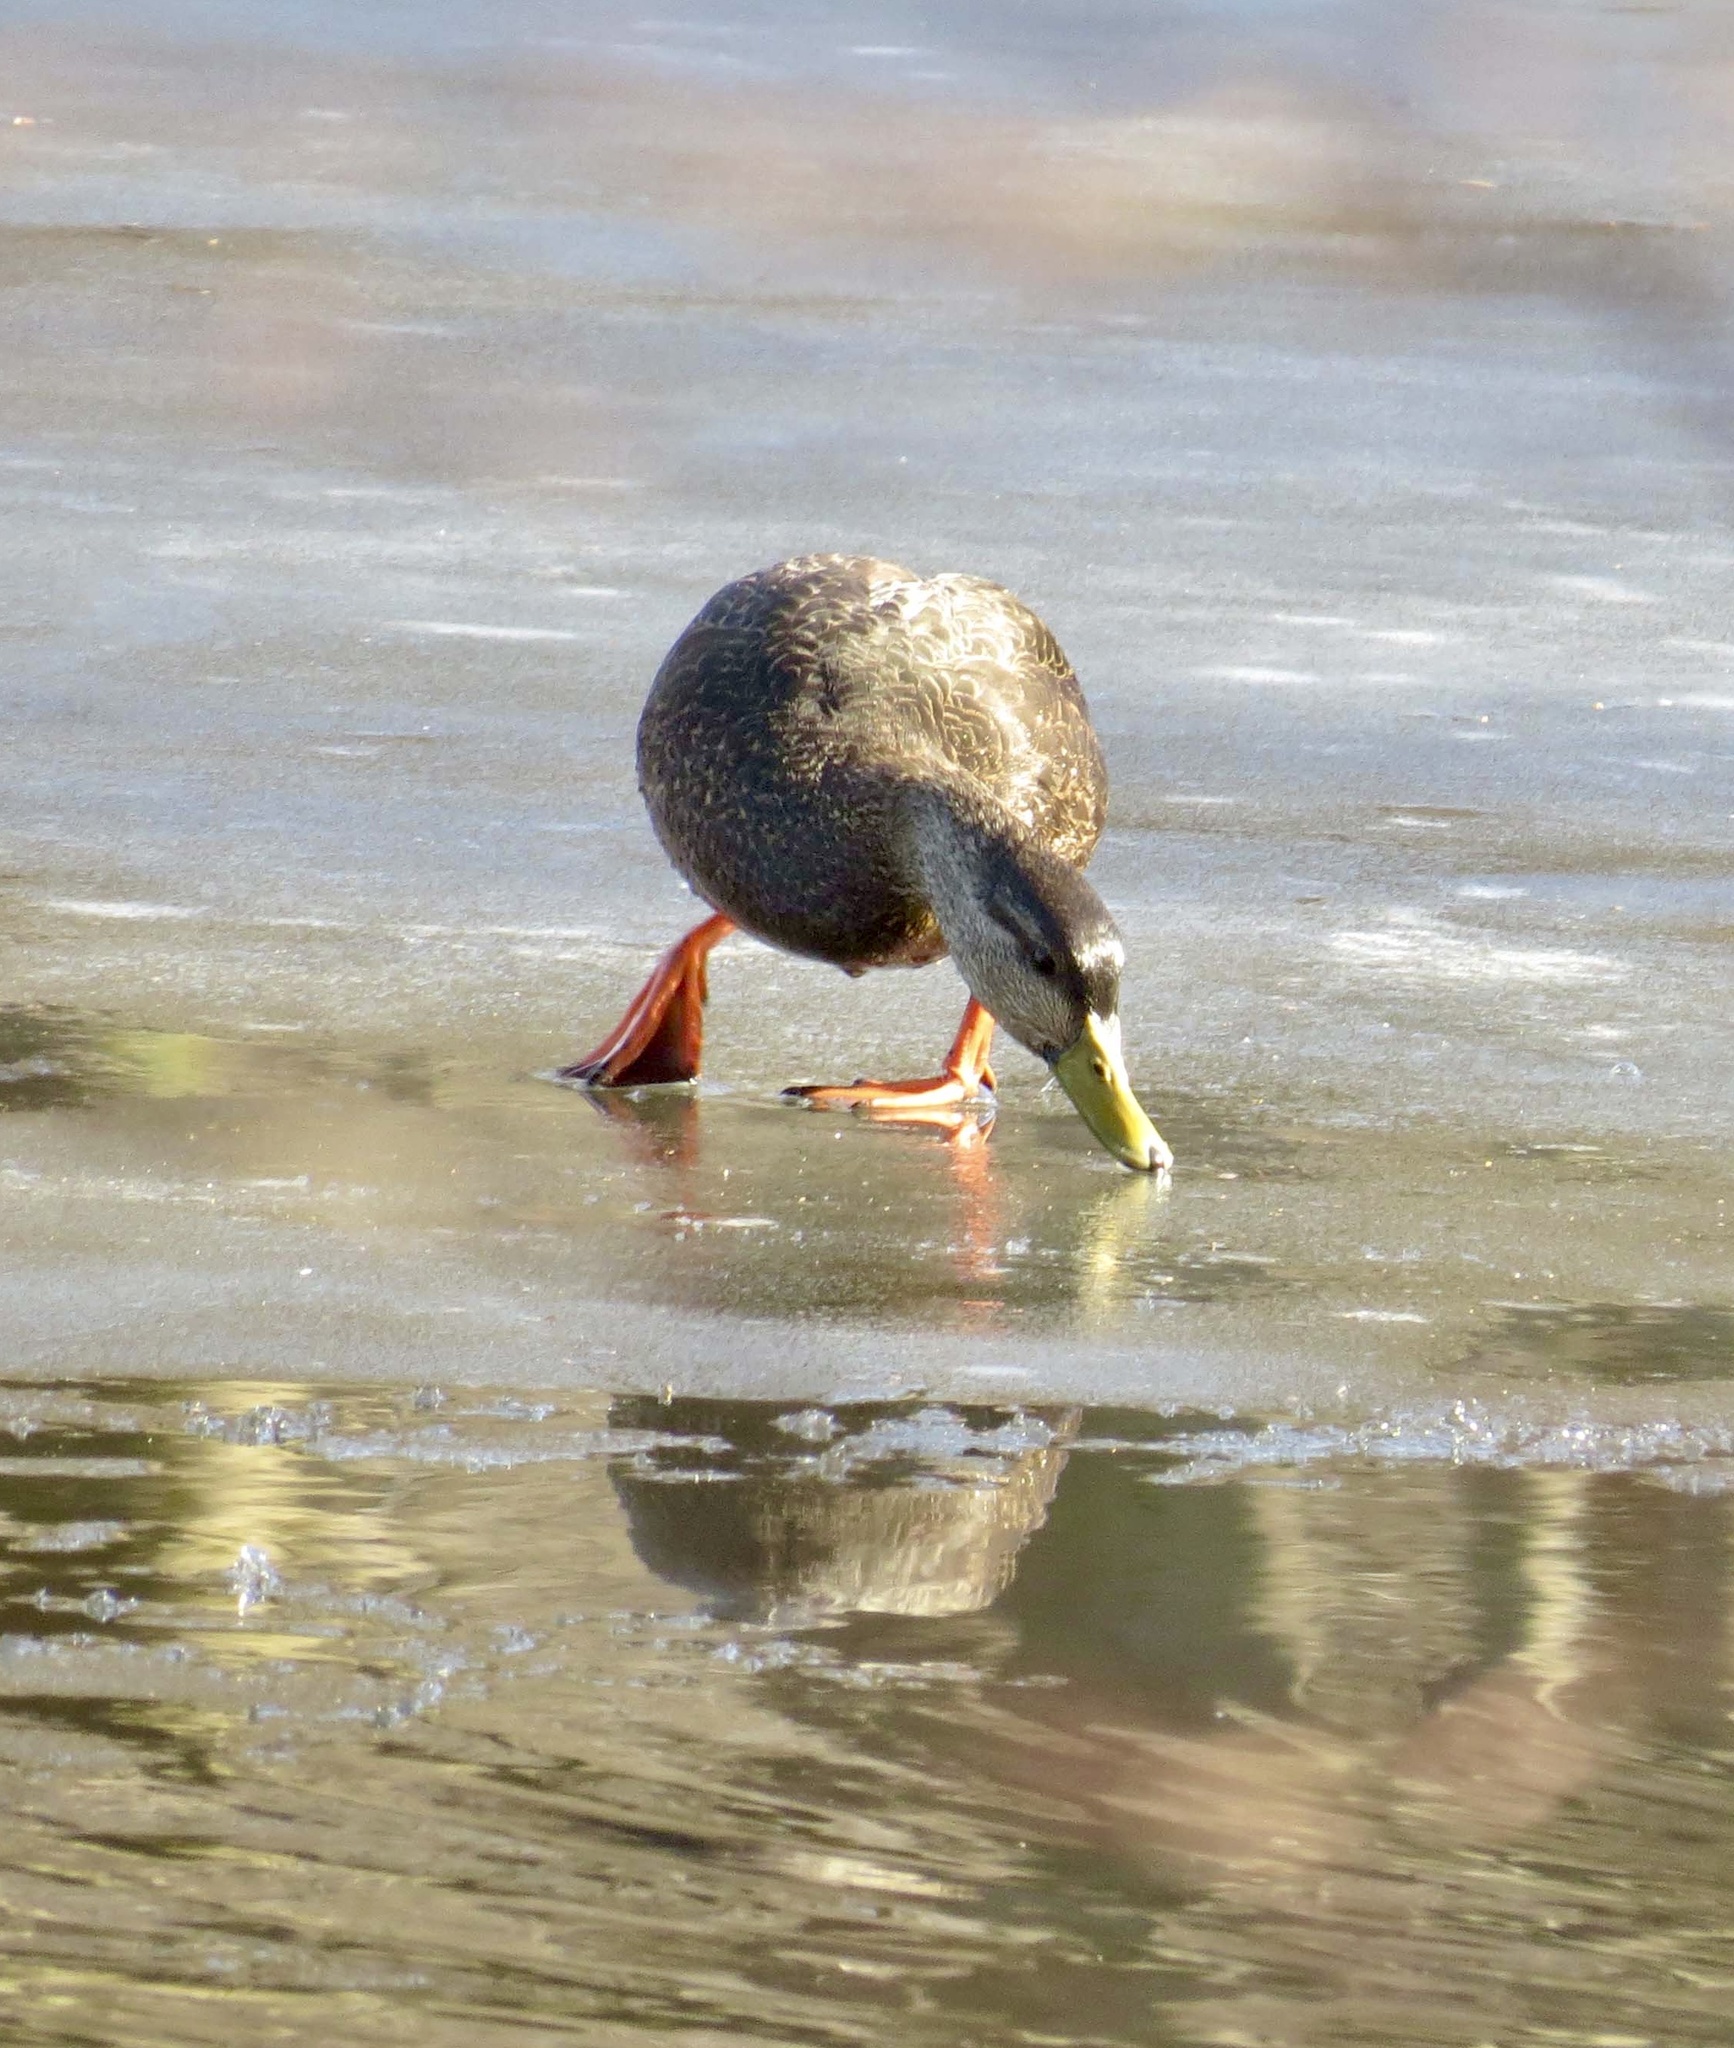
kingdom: Animalia
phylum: Chordata
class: Aves
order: Anseriformes
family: Anatidae
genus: Anas
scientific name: Anas rubripes
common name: American black duck
